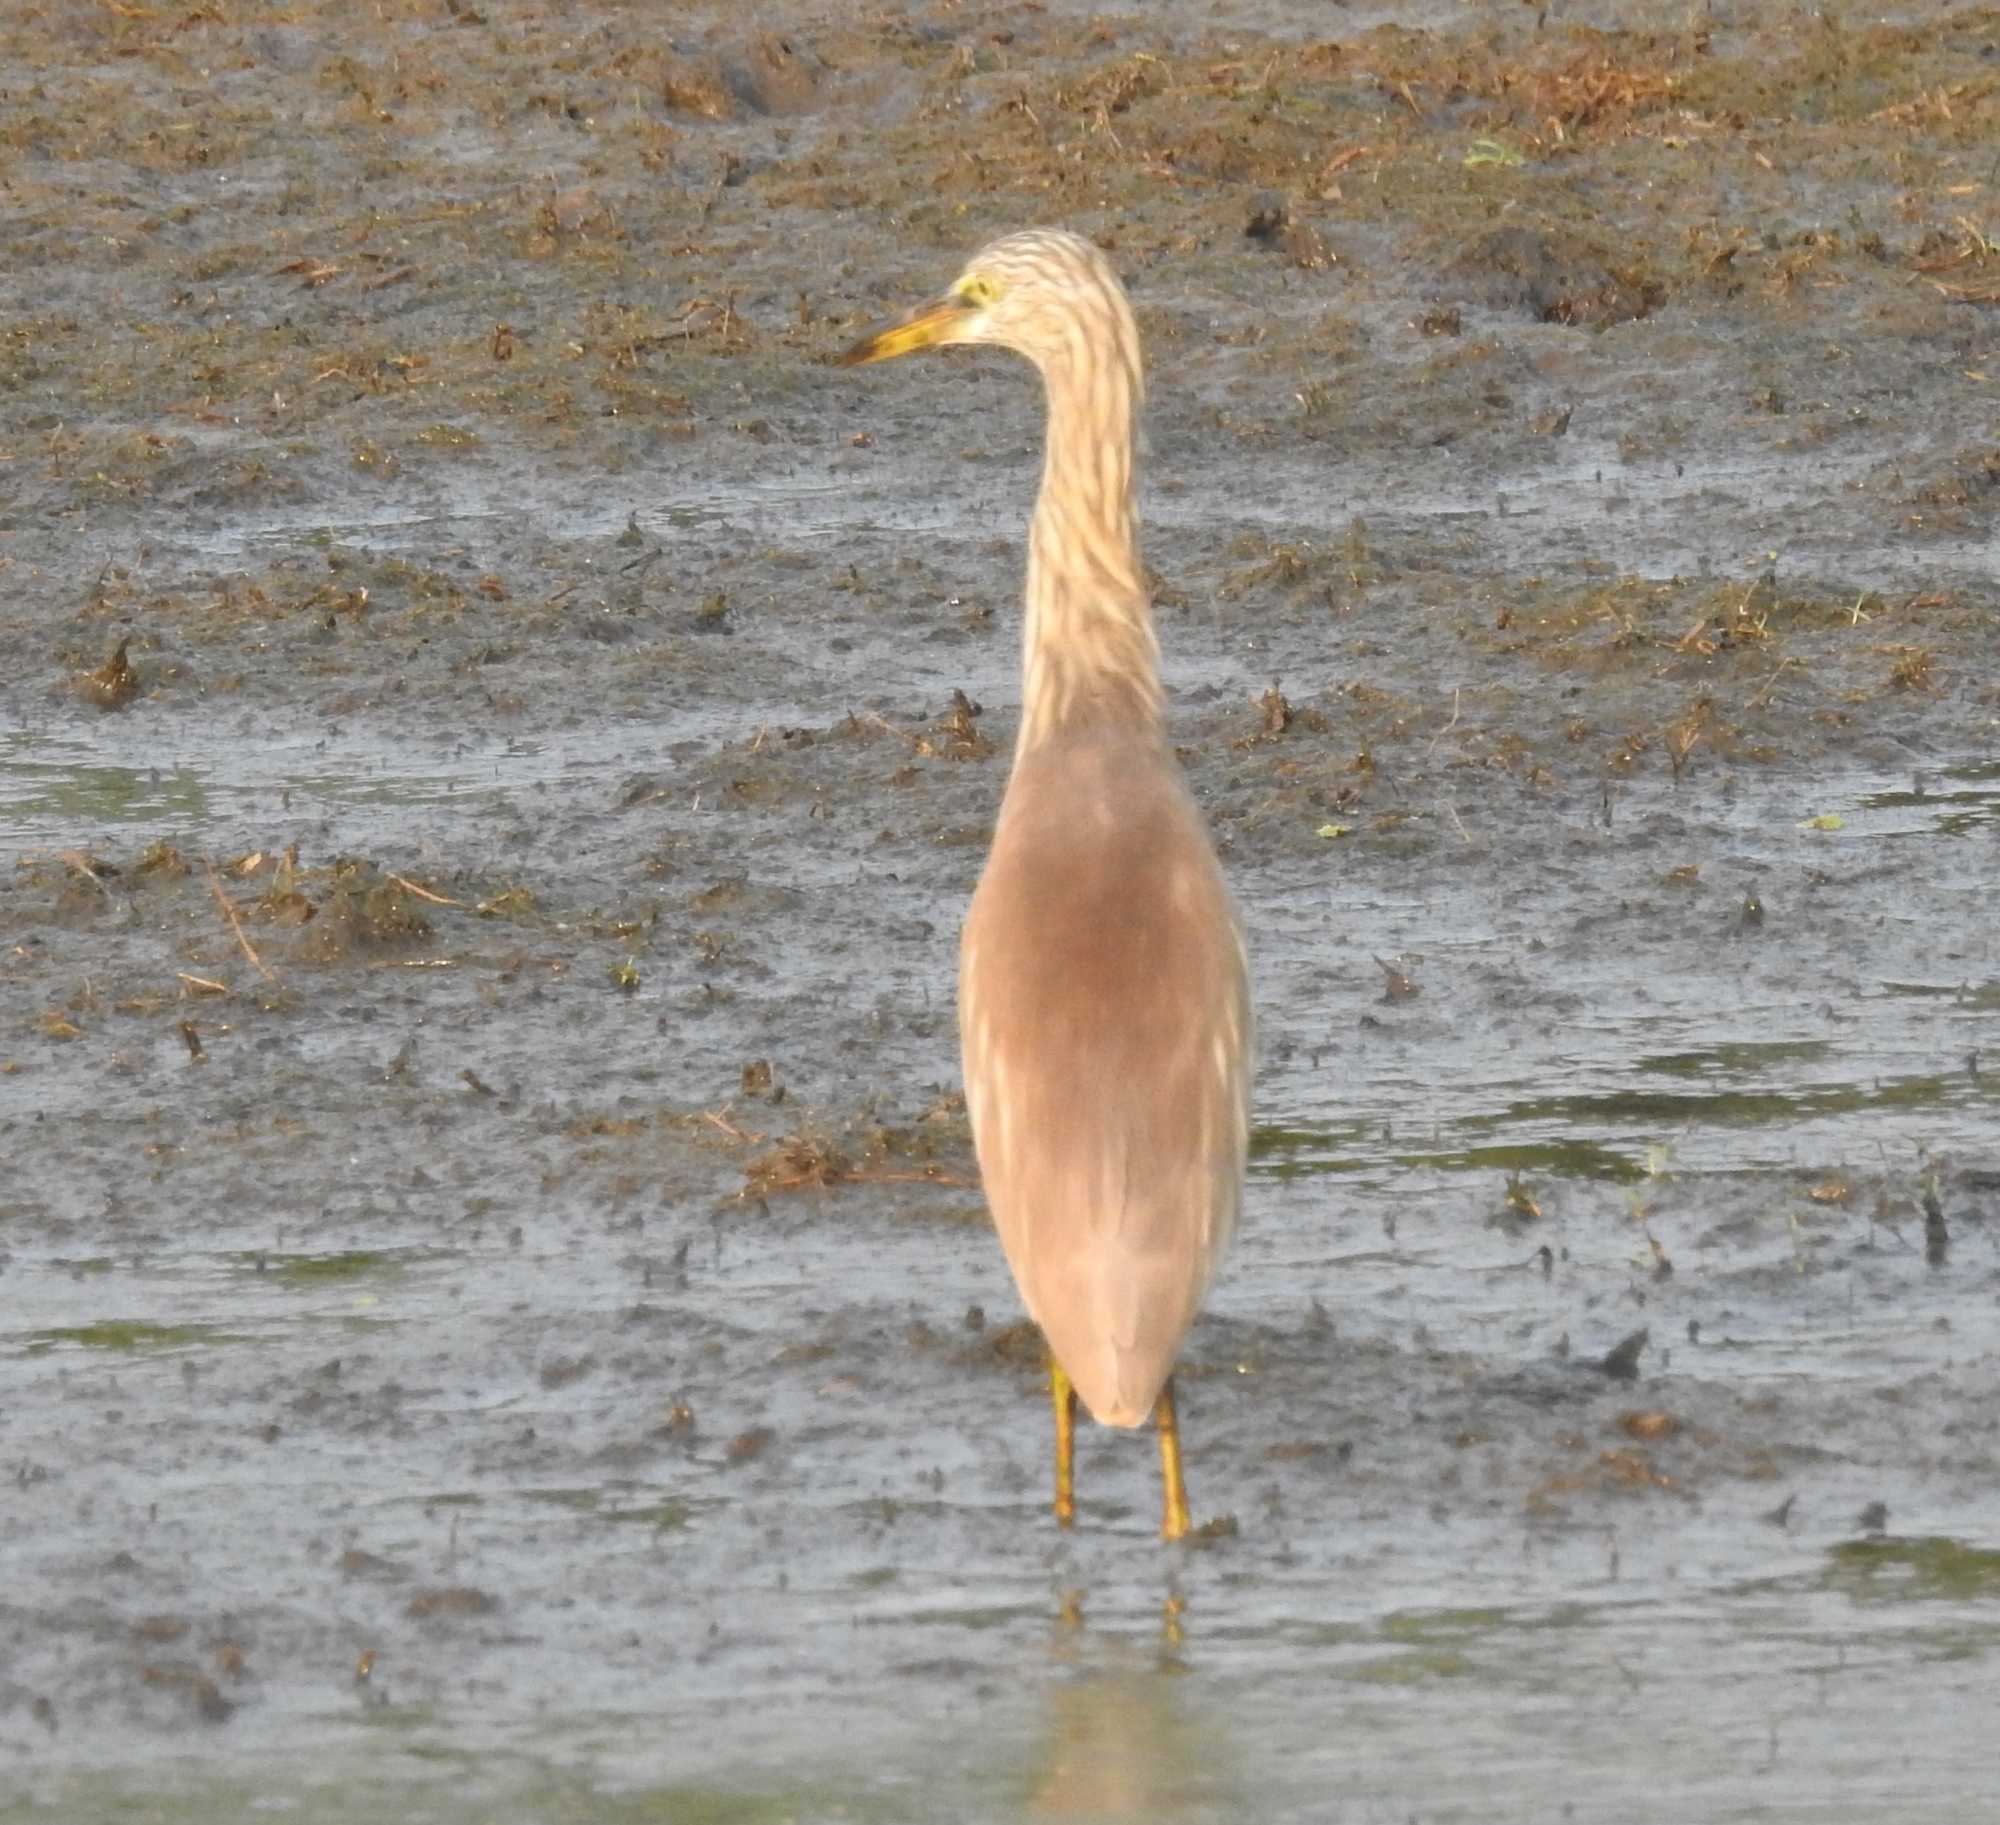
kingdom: Animalia
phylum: Chordata
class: Aves
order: Pelecaniformes
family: Ardeidae
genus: Ardeola
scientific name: Ardeola grayii
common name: Indian pond heron
